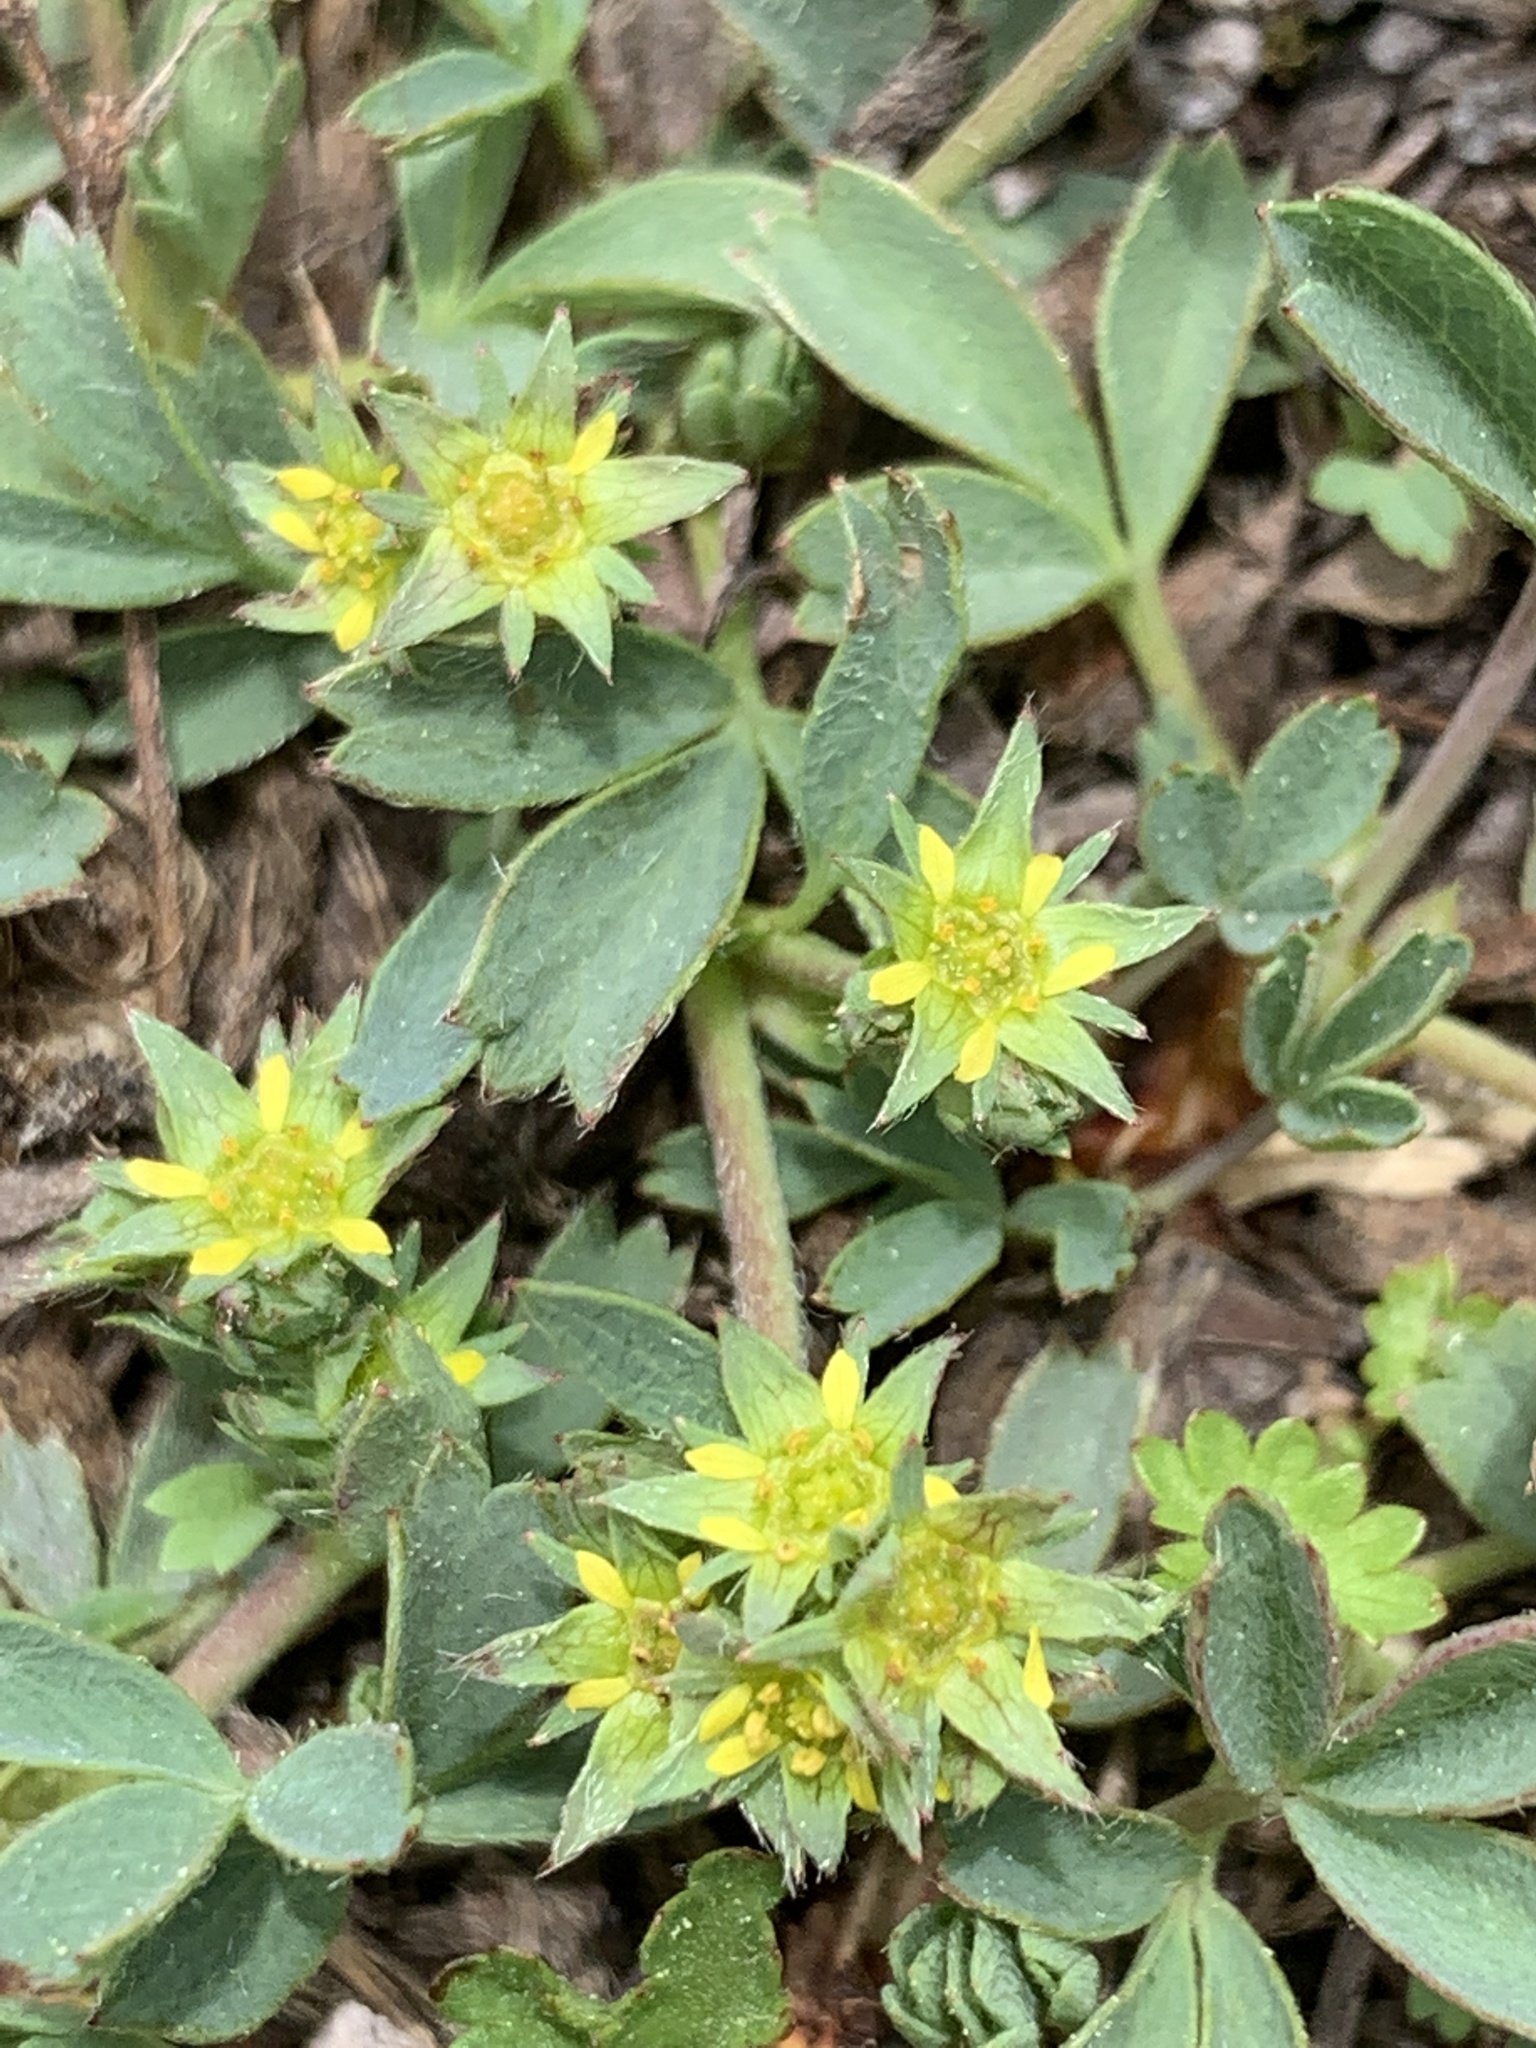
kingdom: Plantae
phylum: Tracheophyta
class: Magnoliopsida
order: Rosales
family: Rosaceae
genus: Sibbaldia
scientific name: Sibbaldia procumbens
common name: Creeping sibbaldia
